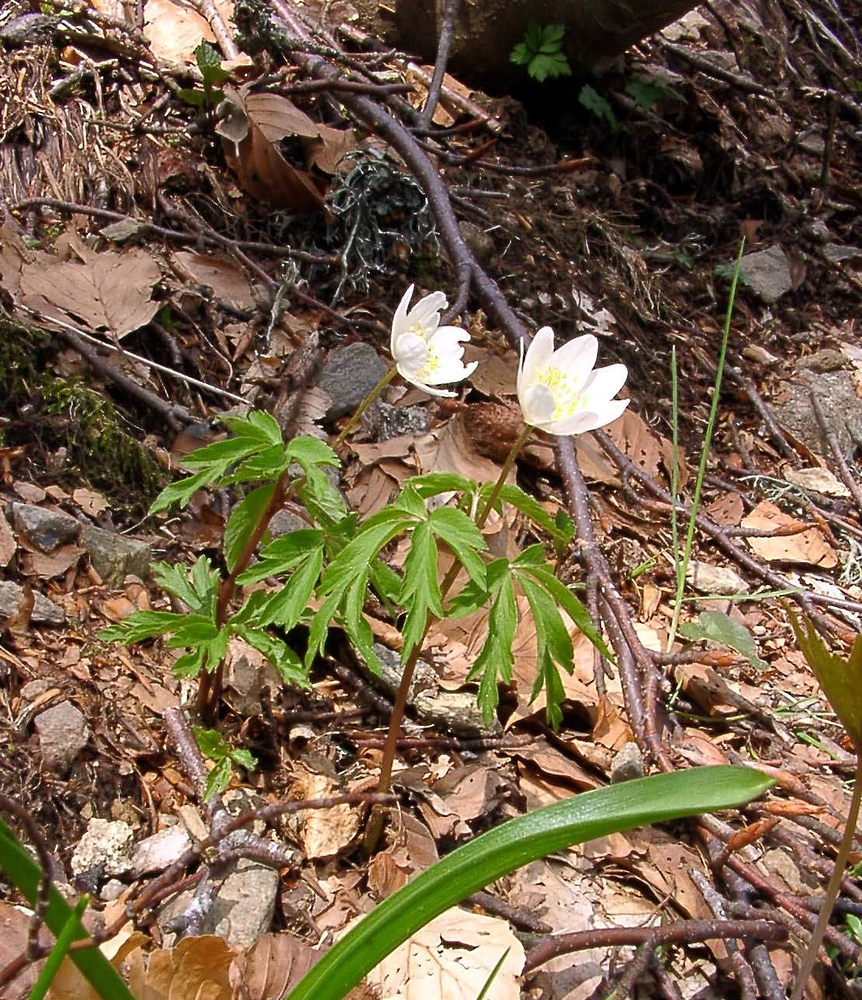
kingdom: Plantae
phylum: Tracheophyta
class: Magnoliopsida
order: Ranunculales
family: Ranunculaceae
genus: Anemone
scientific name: Anemone nemorosa
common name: Wood anemone
